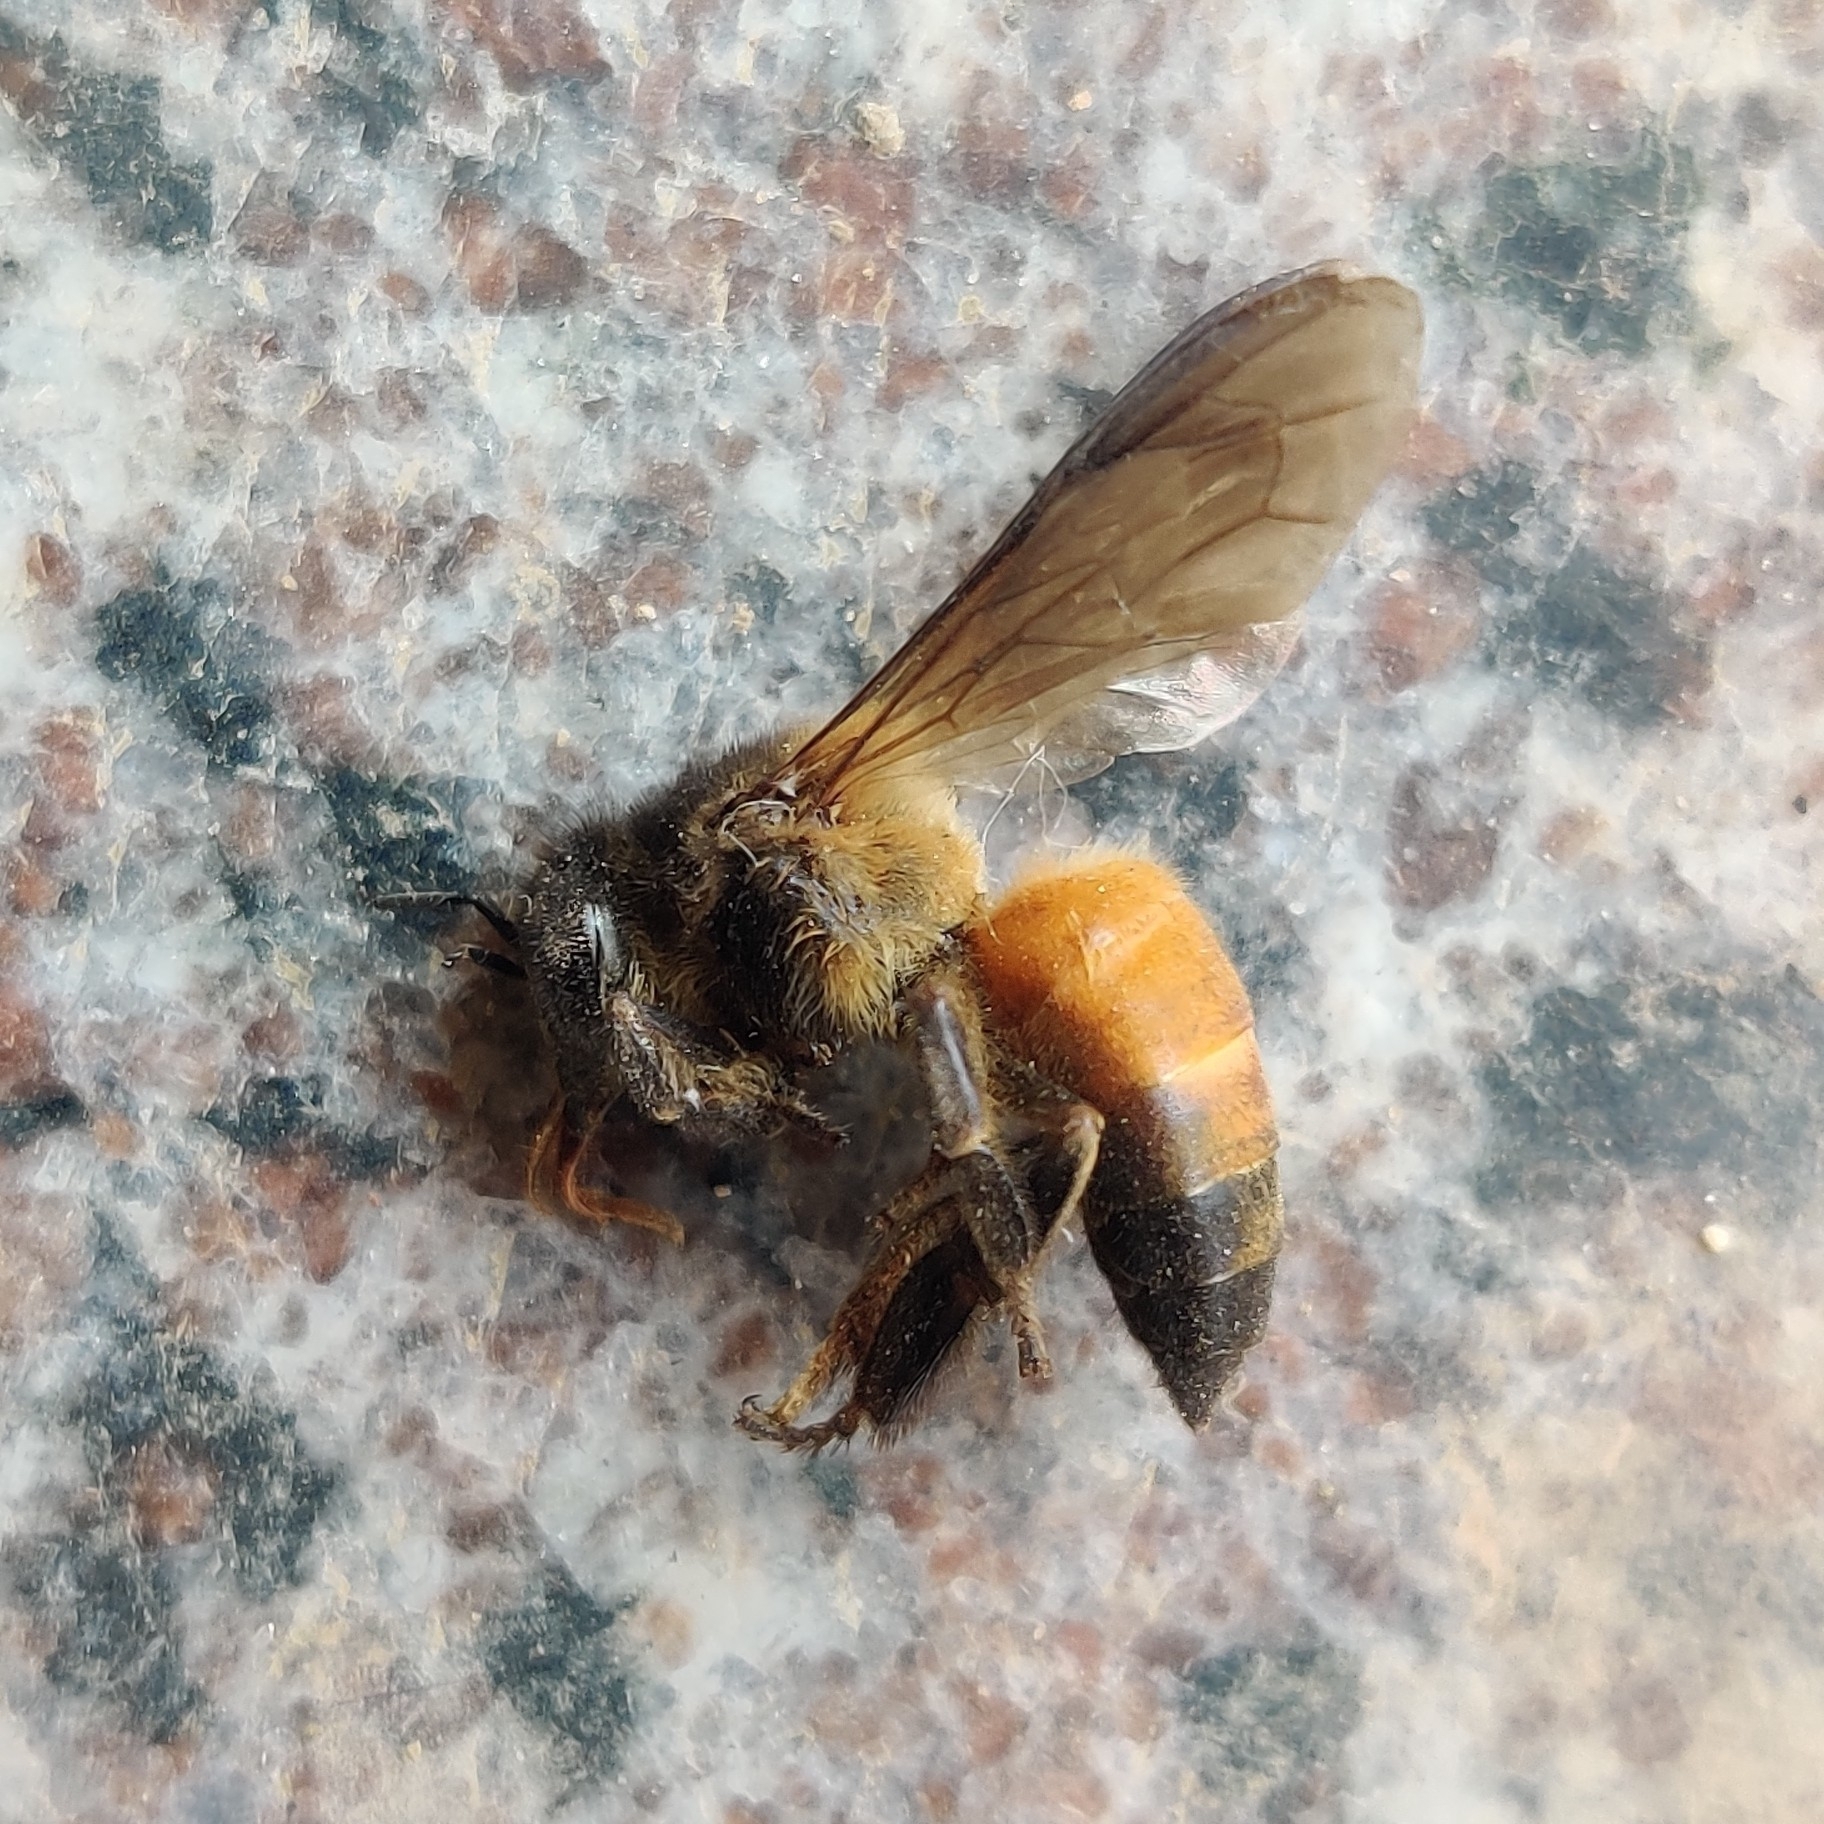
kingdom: Animalia
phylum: Arthropoda
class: Insecta
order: Hymenoptera
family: Apidae
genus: Apis
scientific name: Apis dorsata
